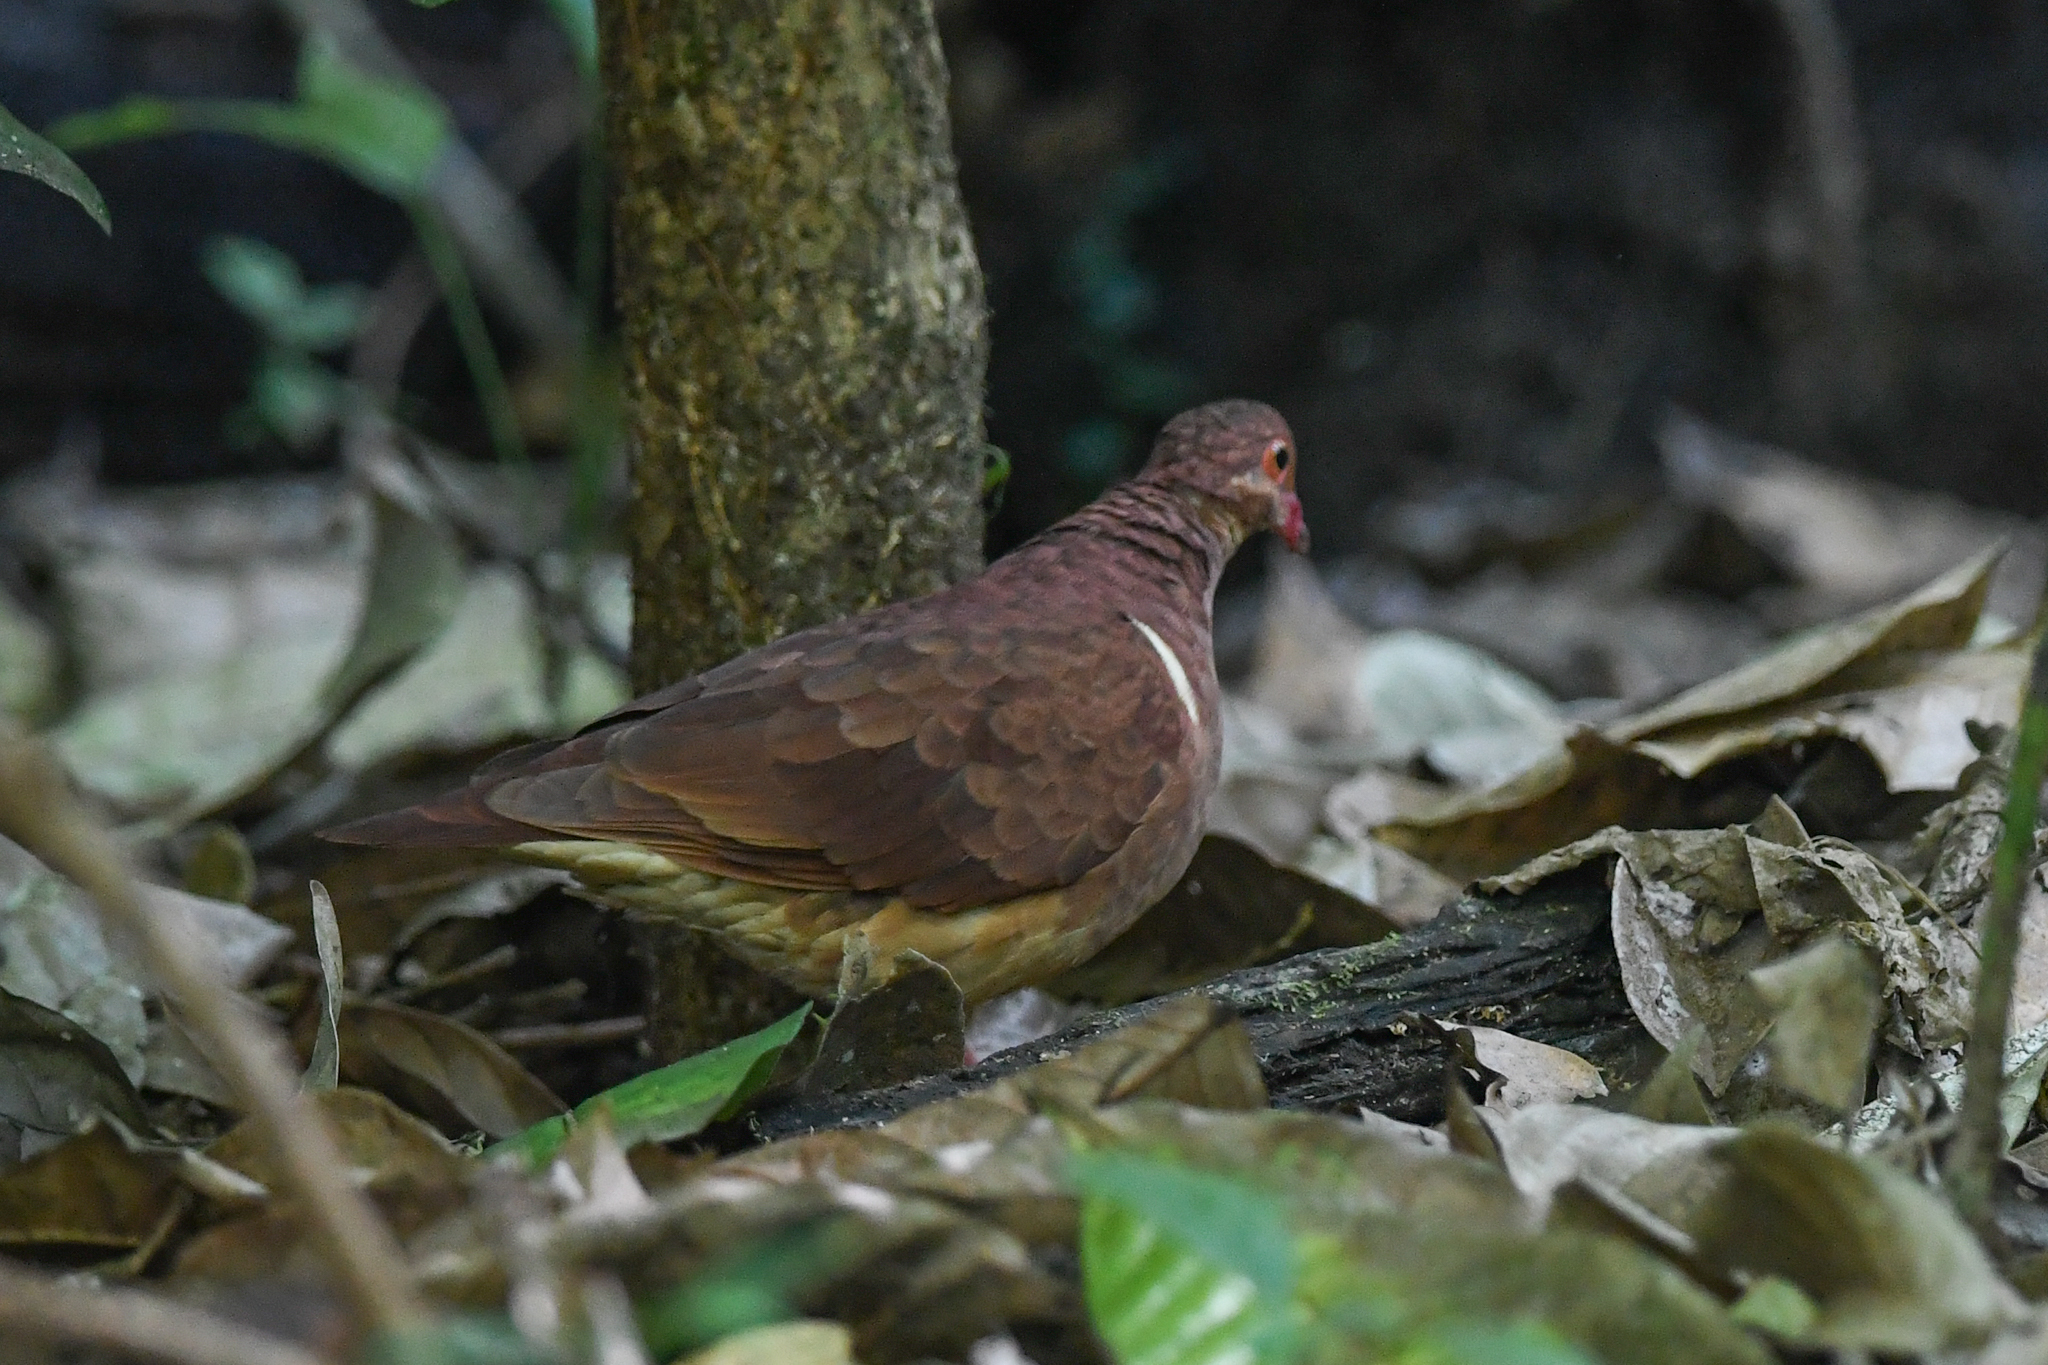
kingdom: Animalia
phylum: Chordata
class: Aves
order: Columbiformes
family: Columbidae
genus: Geotrygon
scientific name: Geotrygon montana
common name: Ruddy quail-dove
